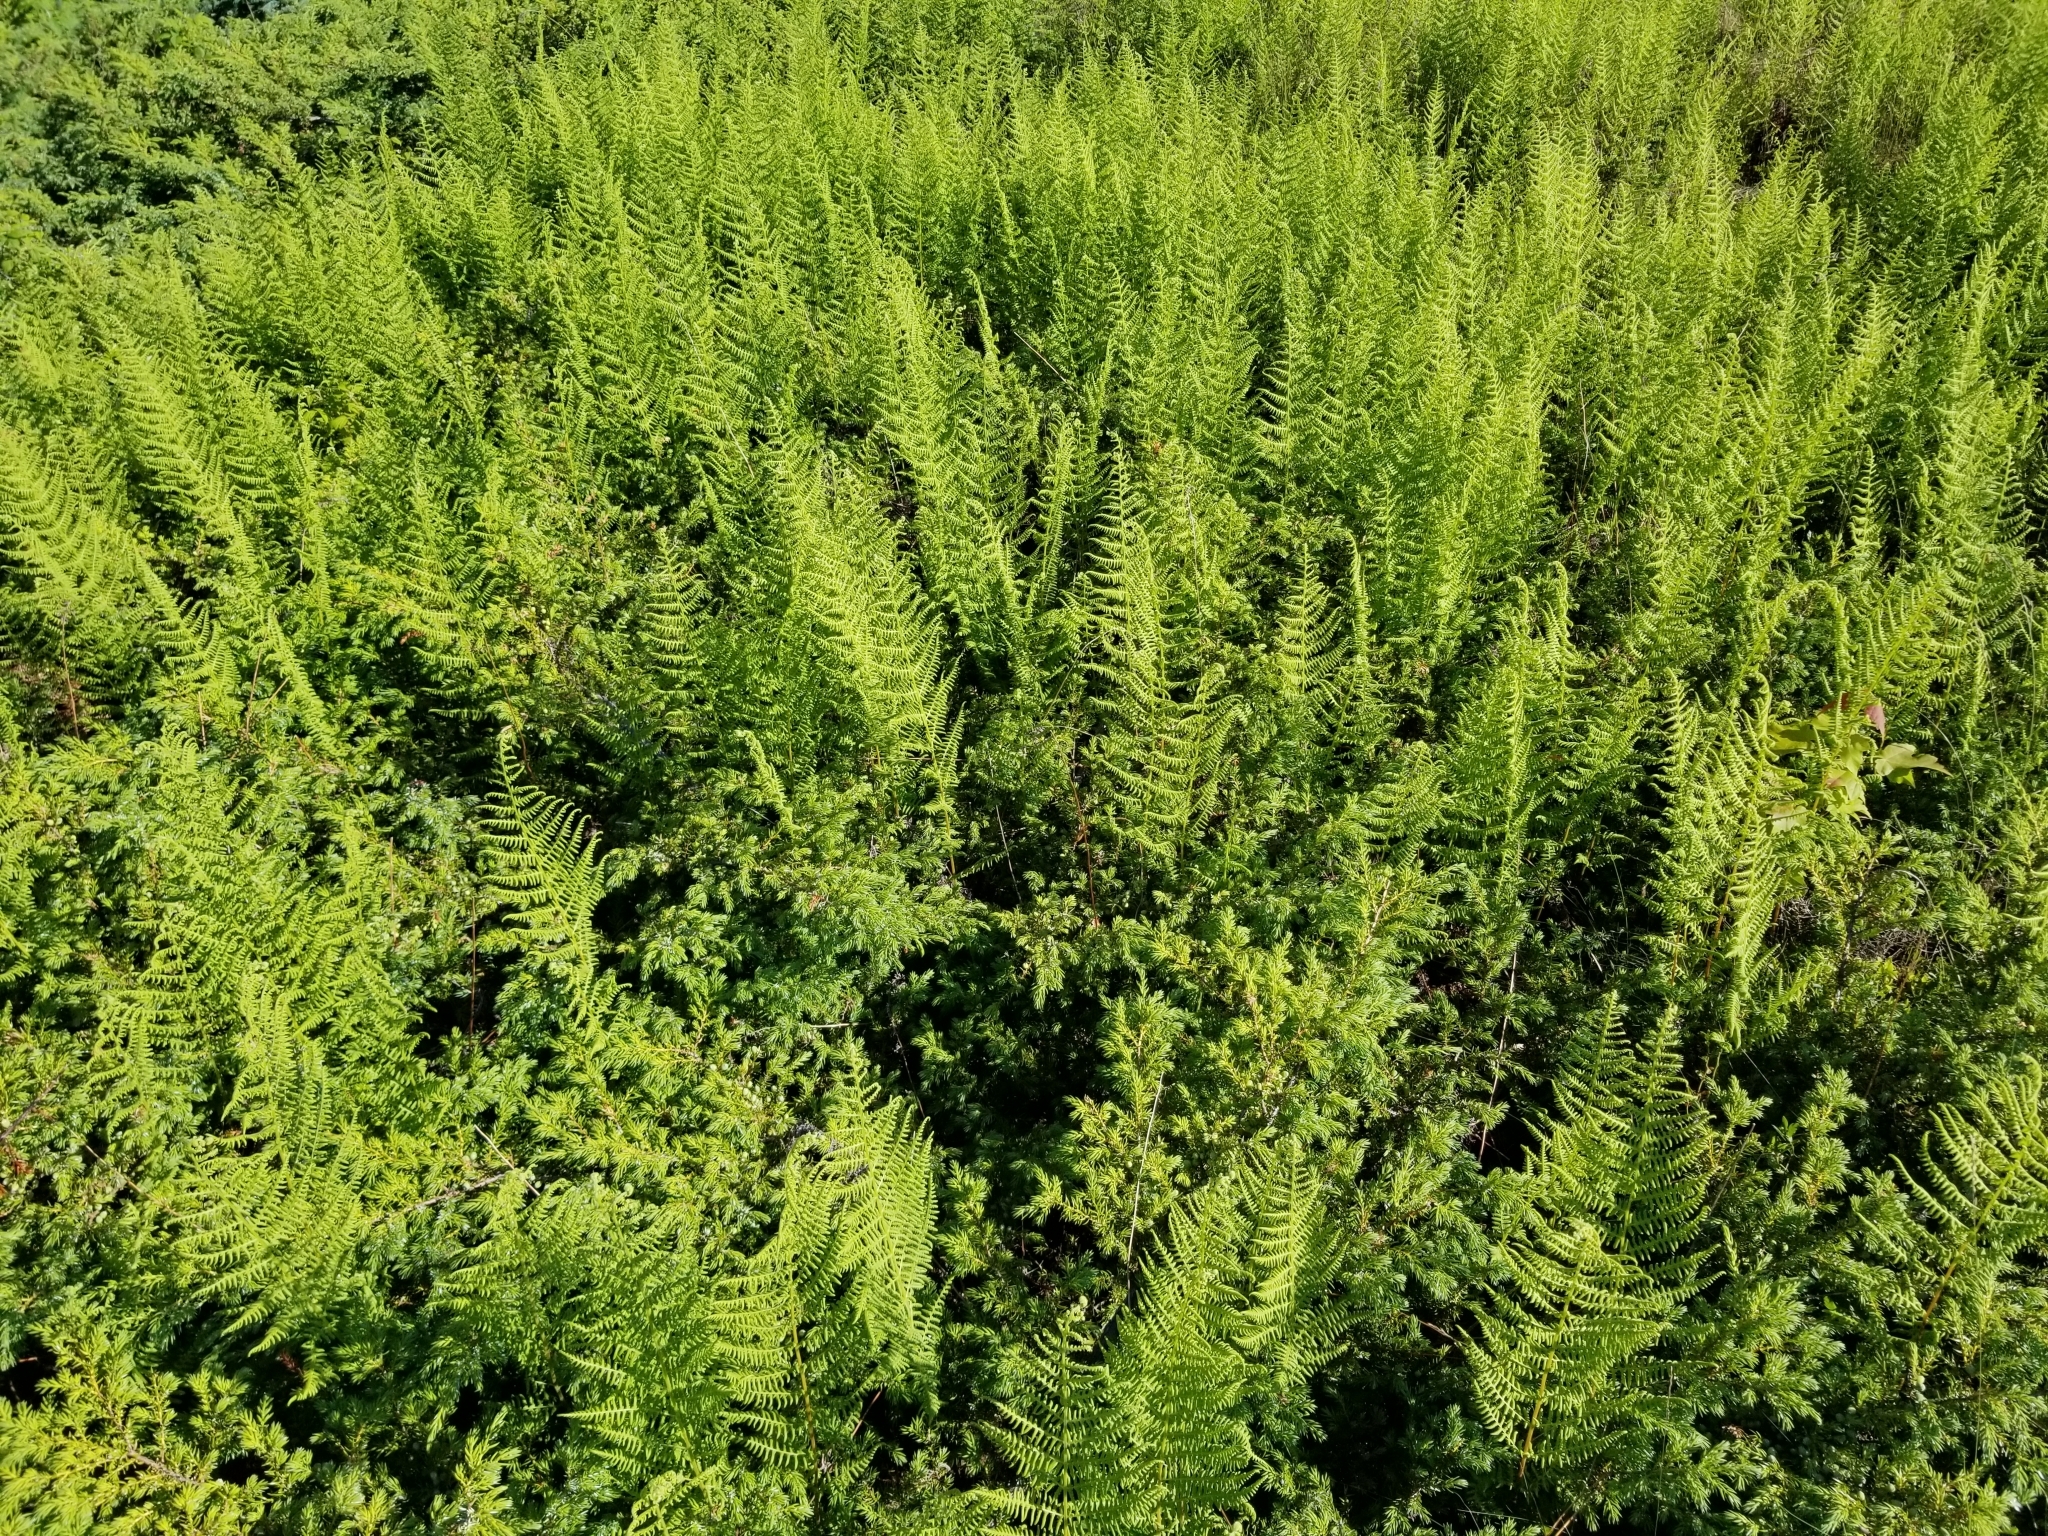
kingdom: Plantae
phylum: Tracheophyta
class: Polypodiopsida
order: Polypodiales
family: Dennstaedtiaceae
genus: Sitobolium
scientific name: Sitobolium punctilobum
